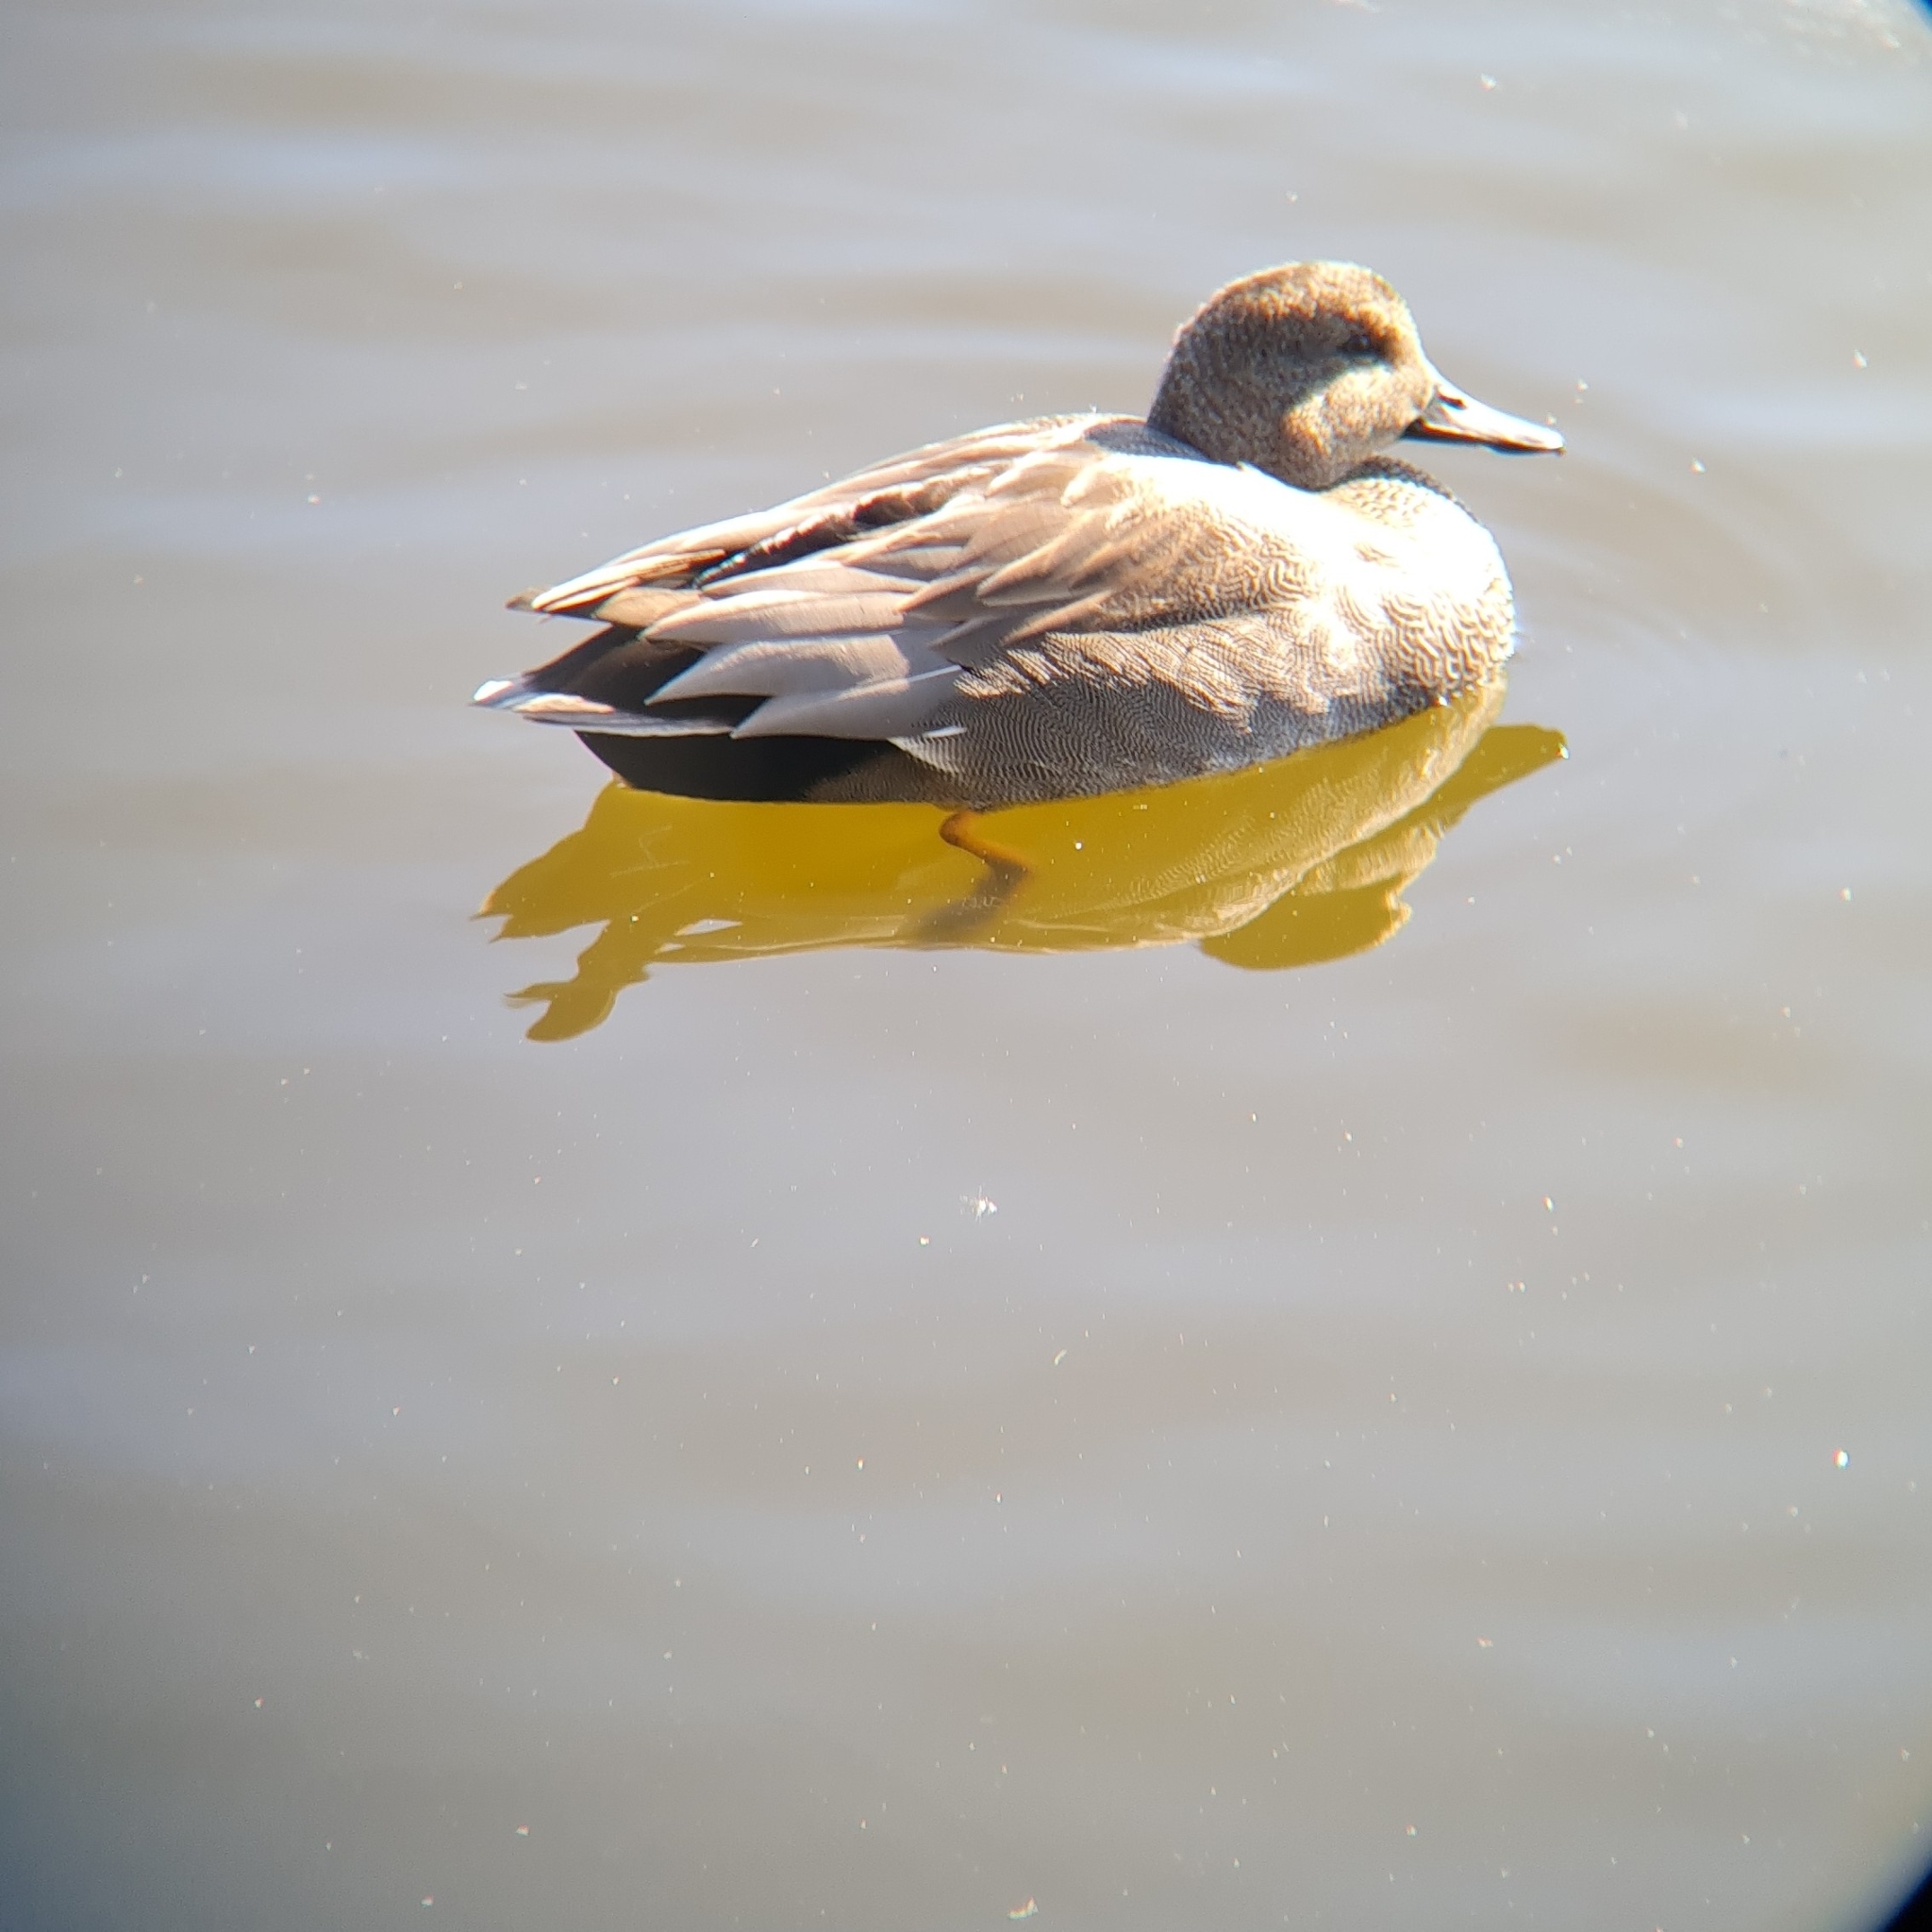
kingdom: Animalia
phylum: Chordata
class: Aves
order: Anseriformes
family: Anatidae
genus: Mareca
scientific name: Mareca strepera
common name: Gadwall
